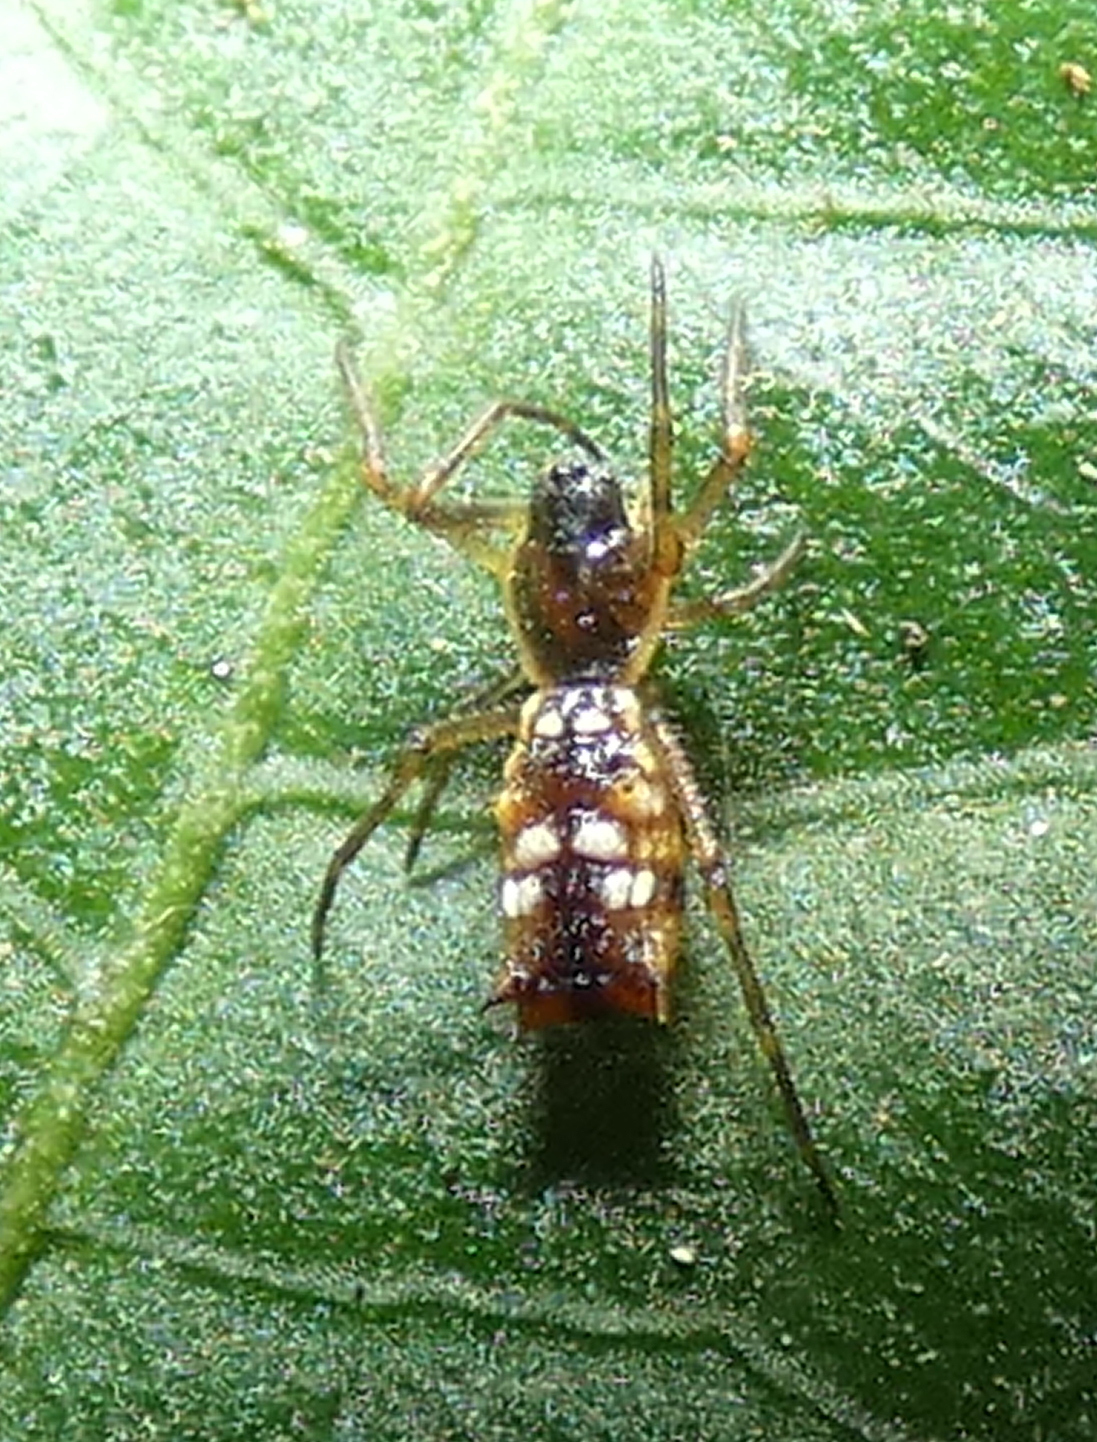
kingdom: Animalia
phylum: Arthropoda
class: Arachnida
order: Araneae
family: Araneidae
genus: Micrathena
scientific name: Micrathena fissispina
